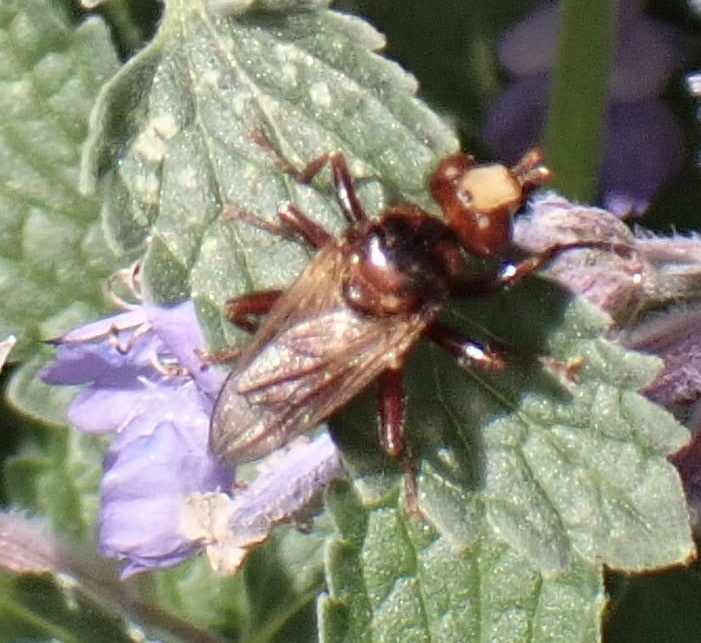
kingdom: Animalia
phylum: Arthropoda
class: Insecta
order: Diptera
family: Conopidae
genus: Sicus
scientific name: Sicus ferrugineus
